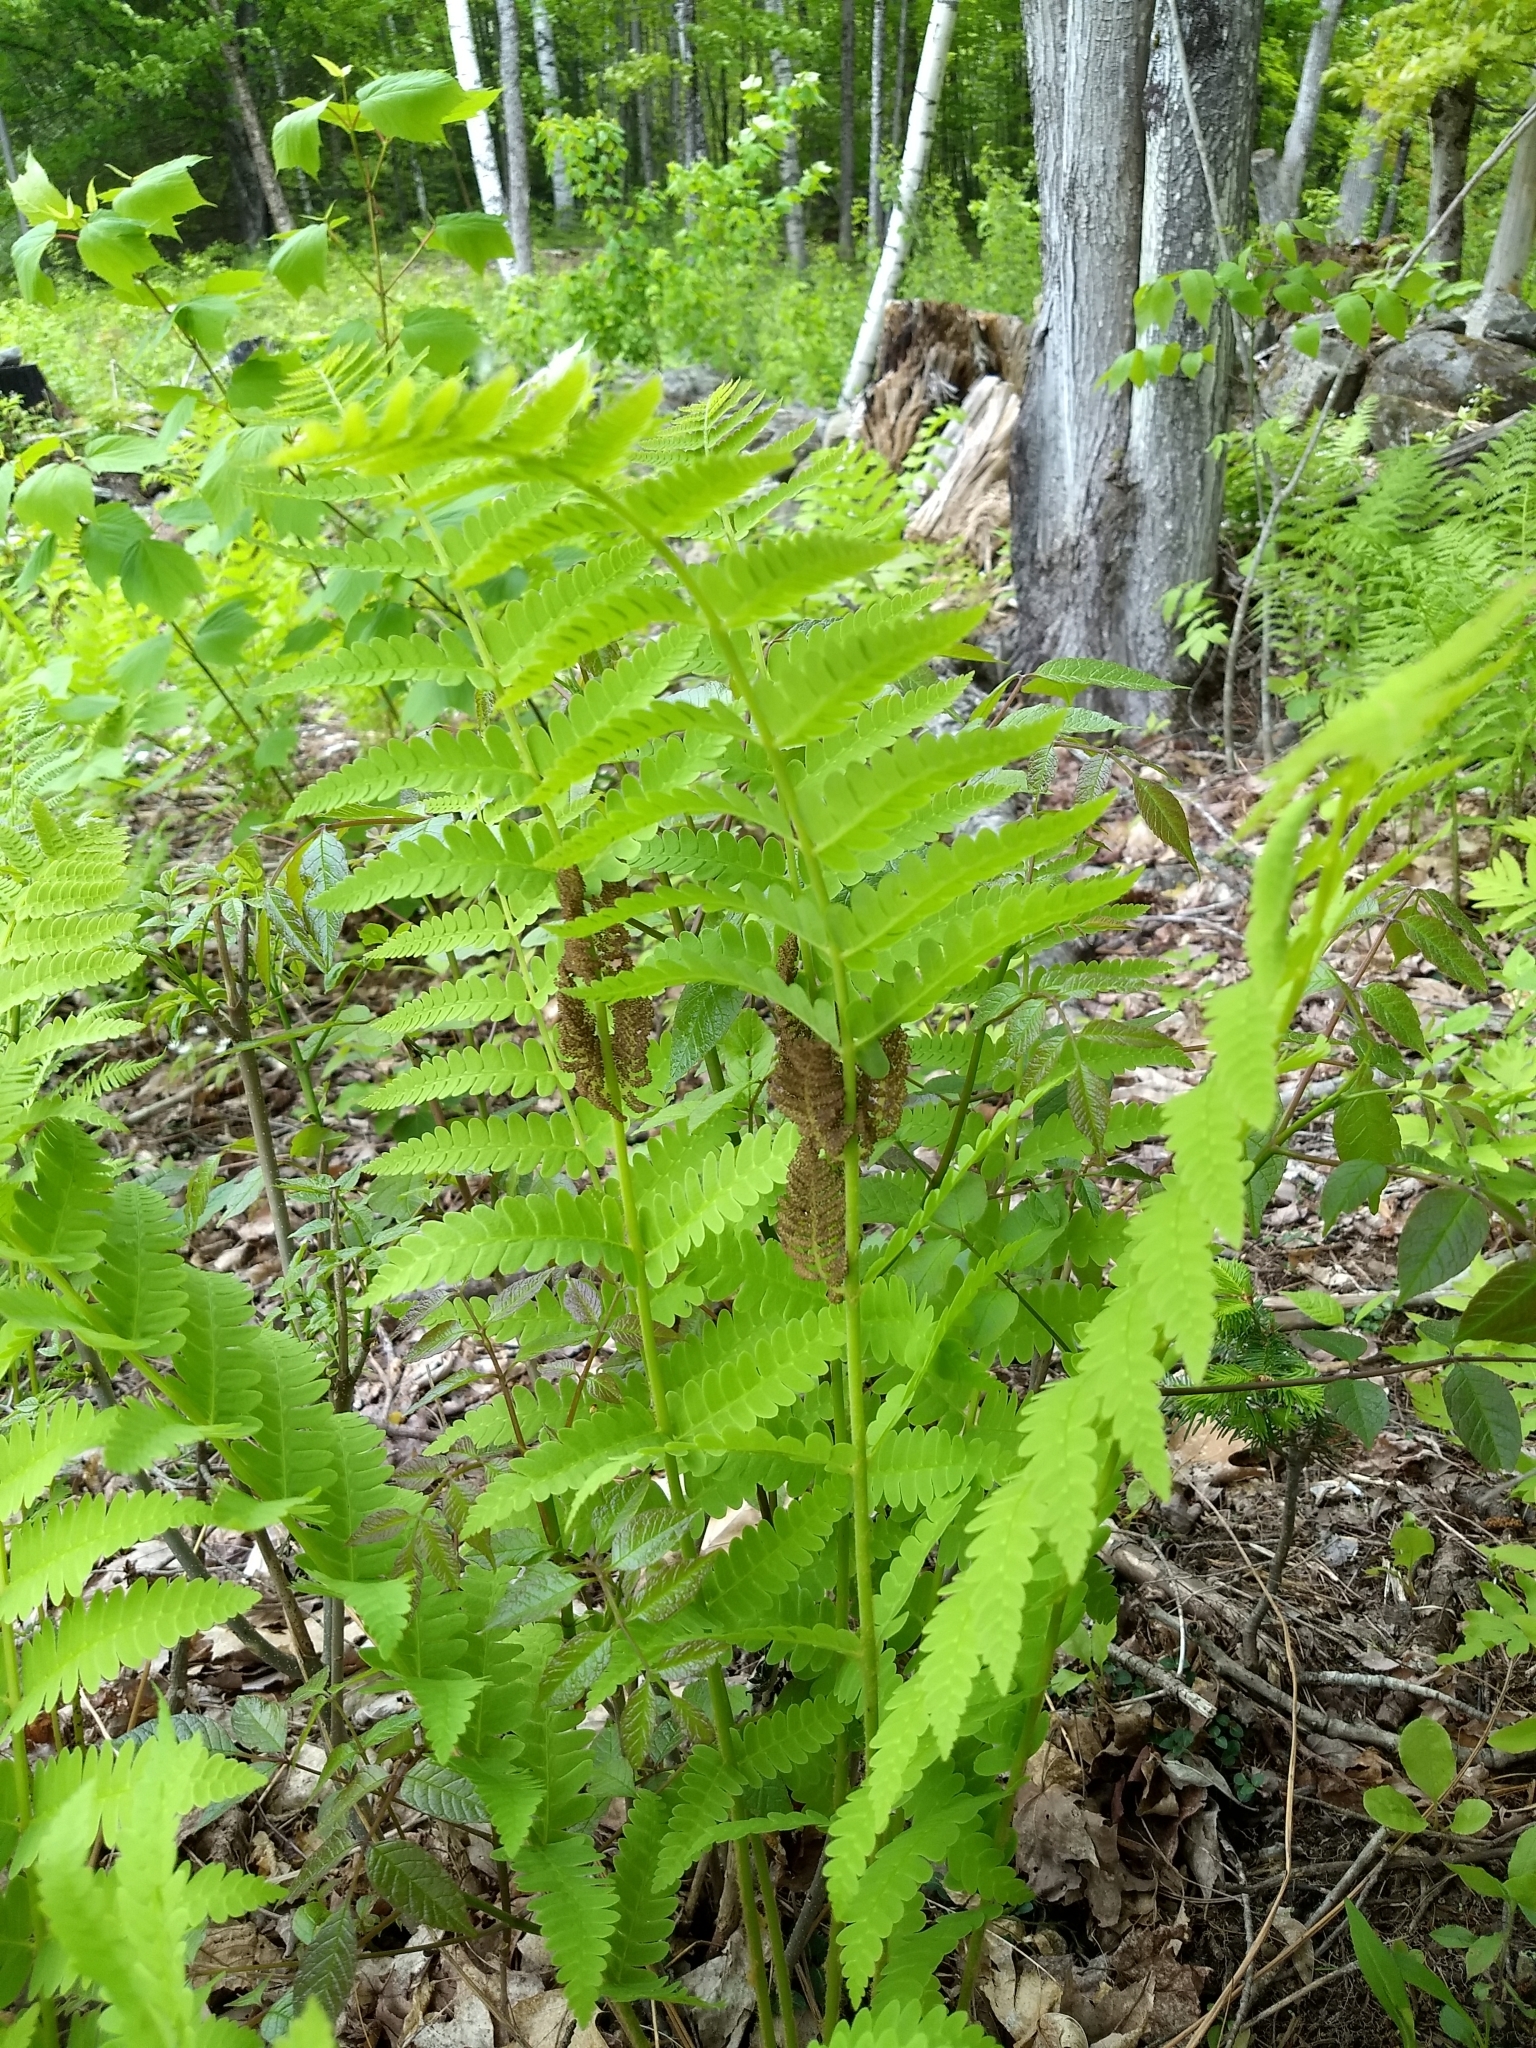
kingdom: Plantae
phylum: Tracheophyta
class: Polypodiopsida
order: Osmundales
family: Osmundaceae
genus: Claytosmunda
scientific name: Claytosmunda claytoniana
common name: Clayton's fern
